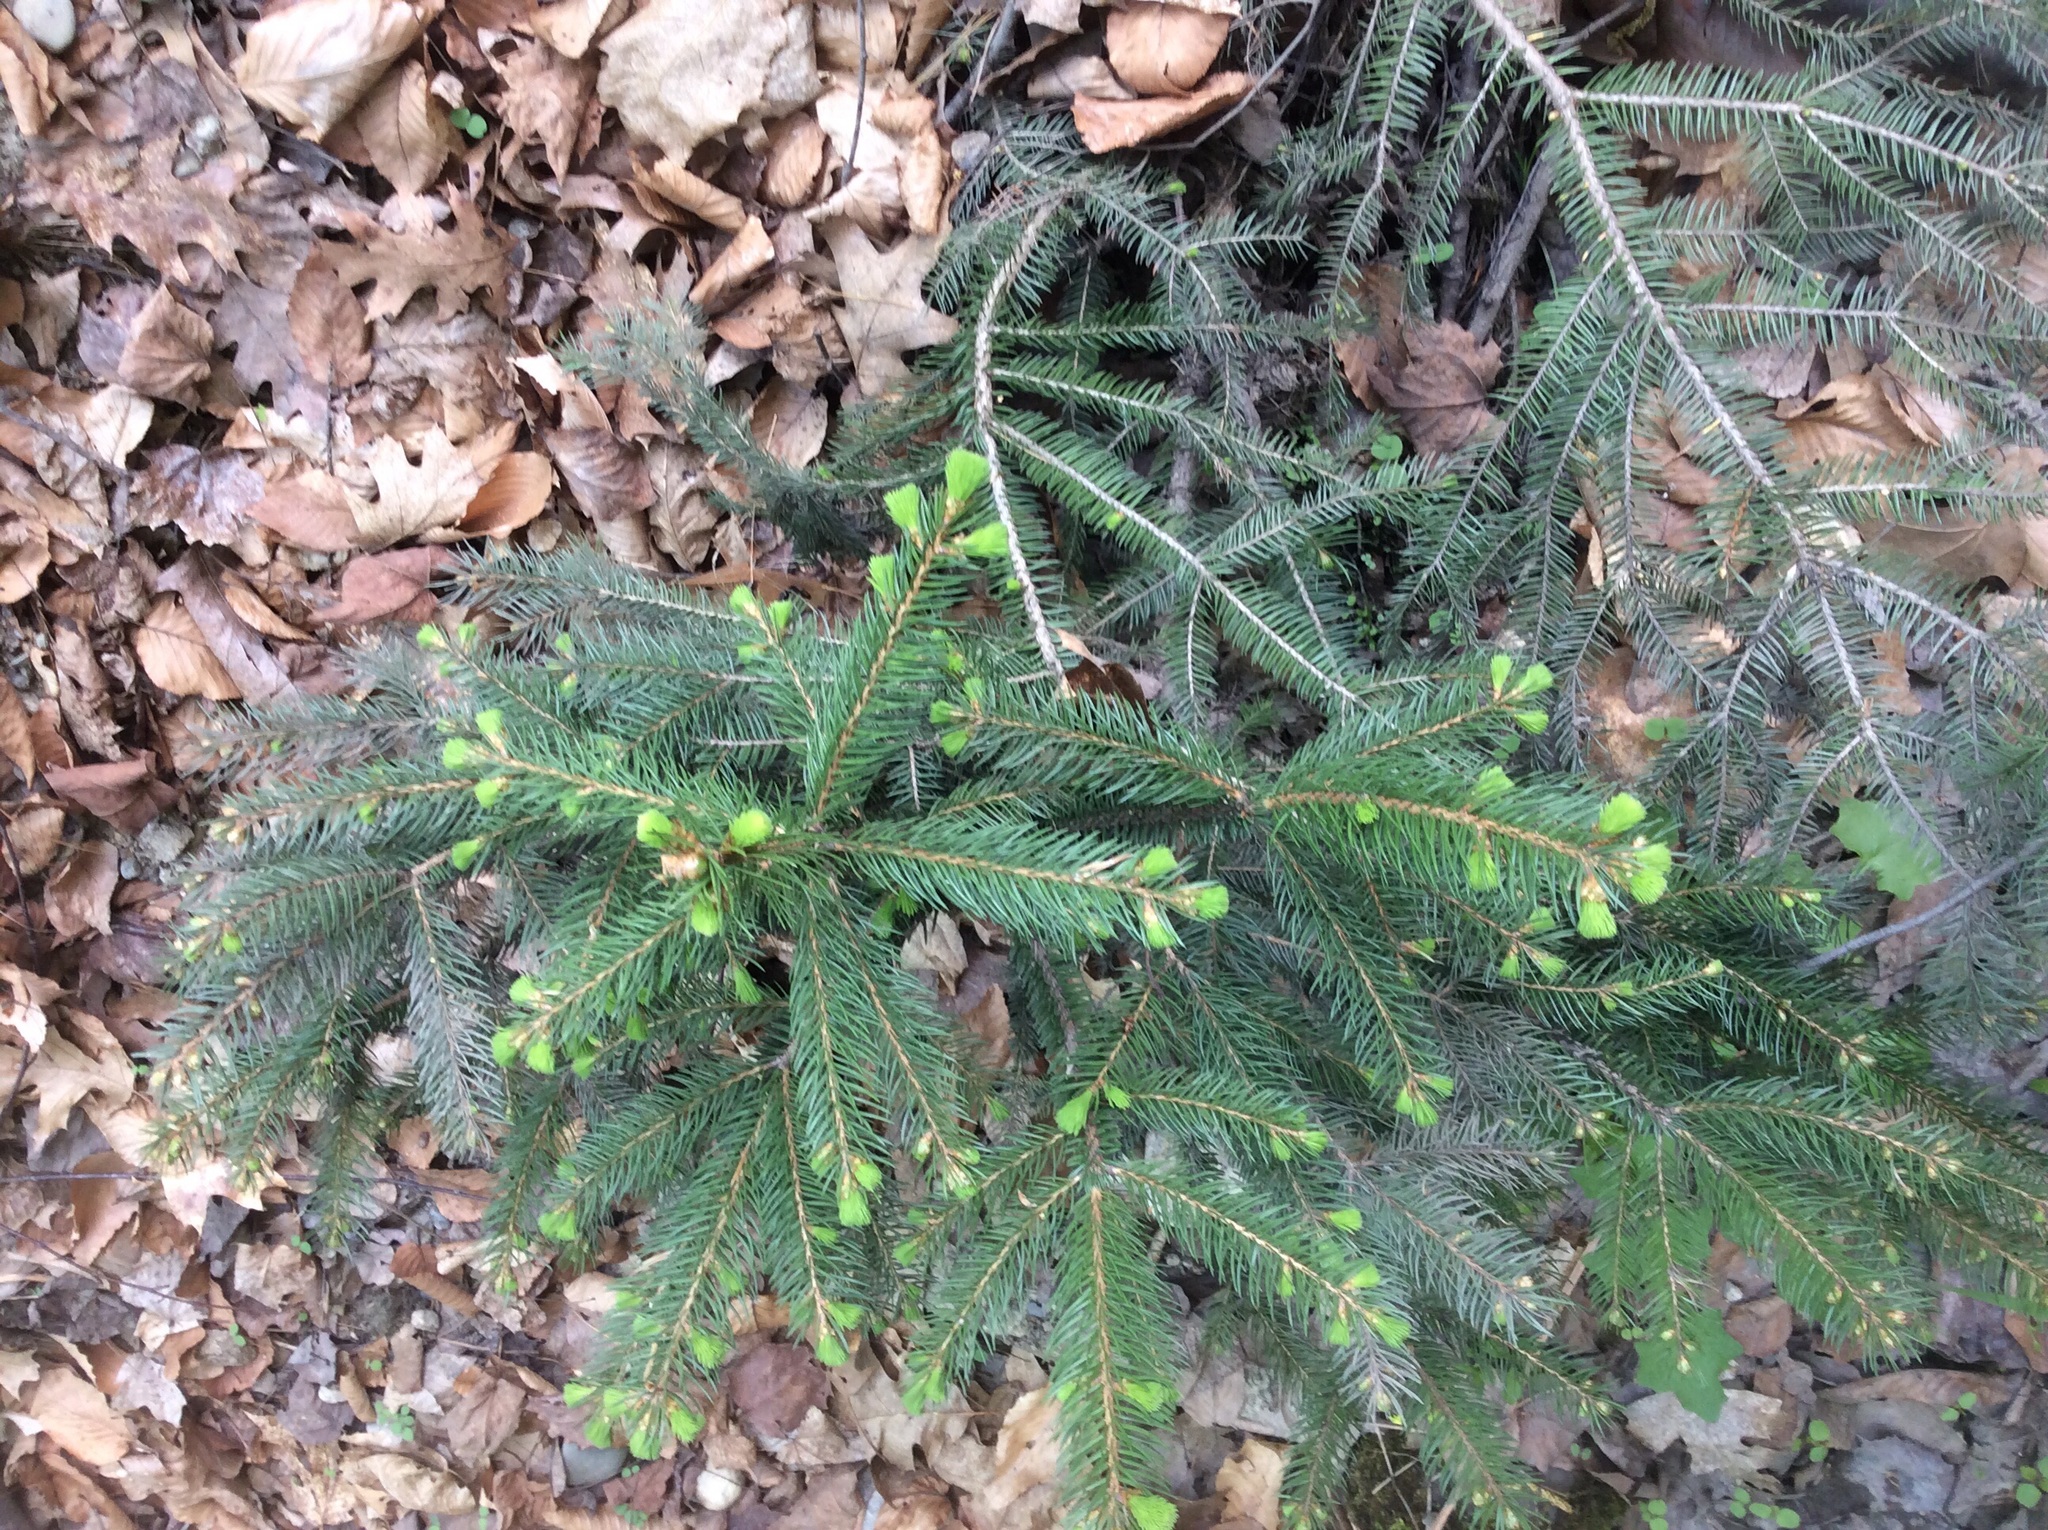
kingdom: Plantae
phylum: Tracheophyta
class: Pinopsida
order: Pinales
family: Pinaceae
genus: Picea
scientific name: Picea rubens
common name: Red spruce
